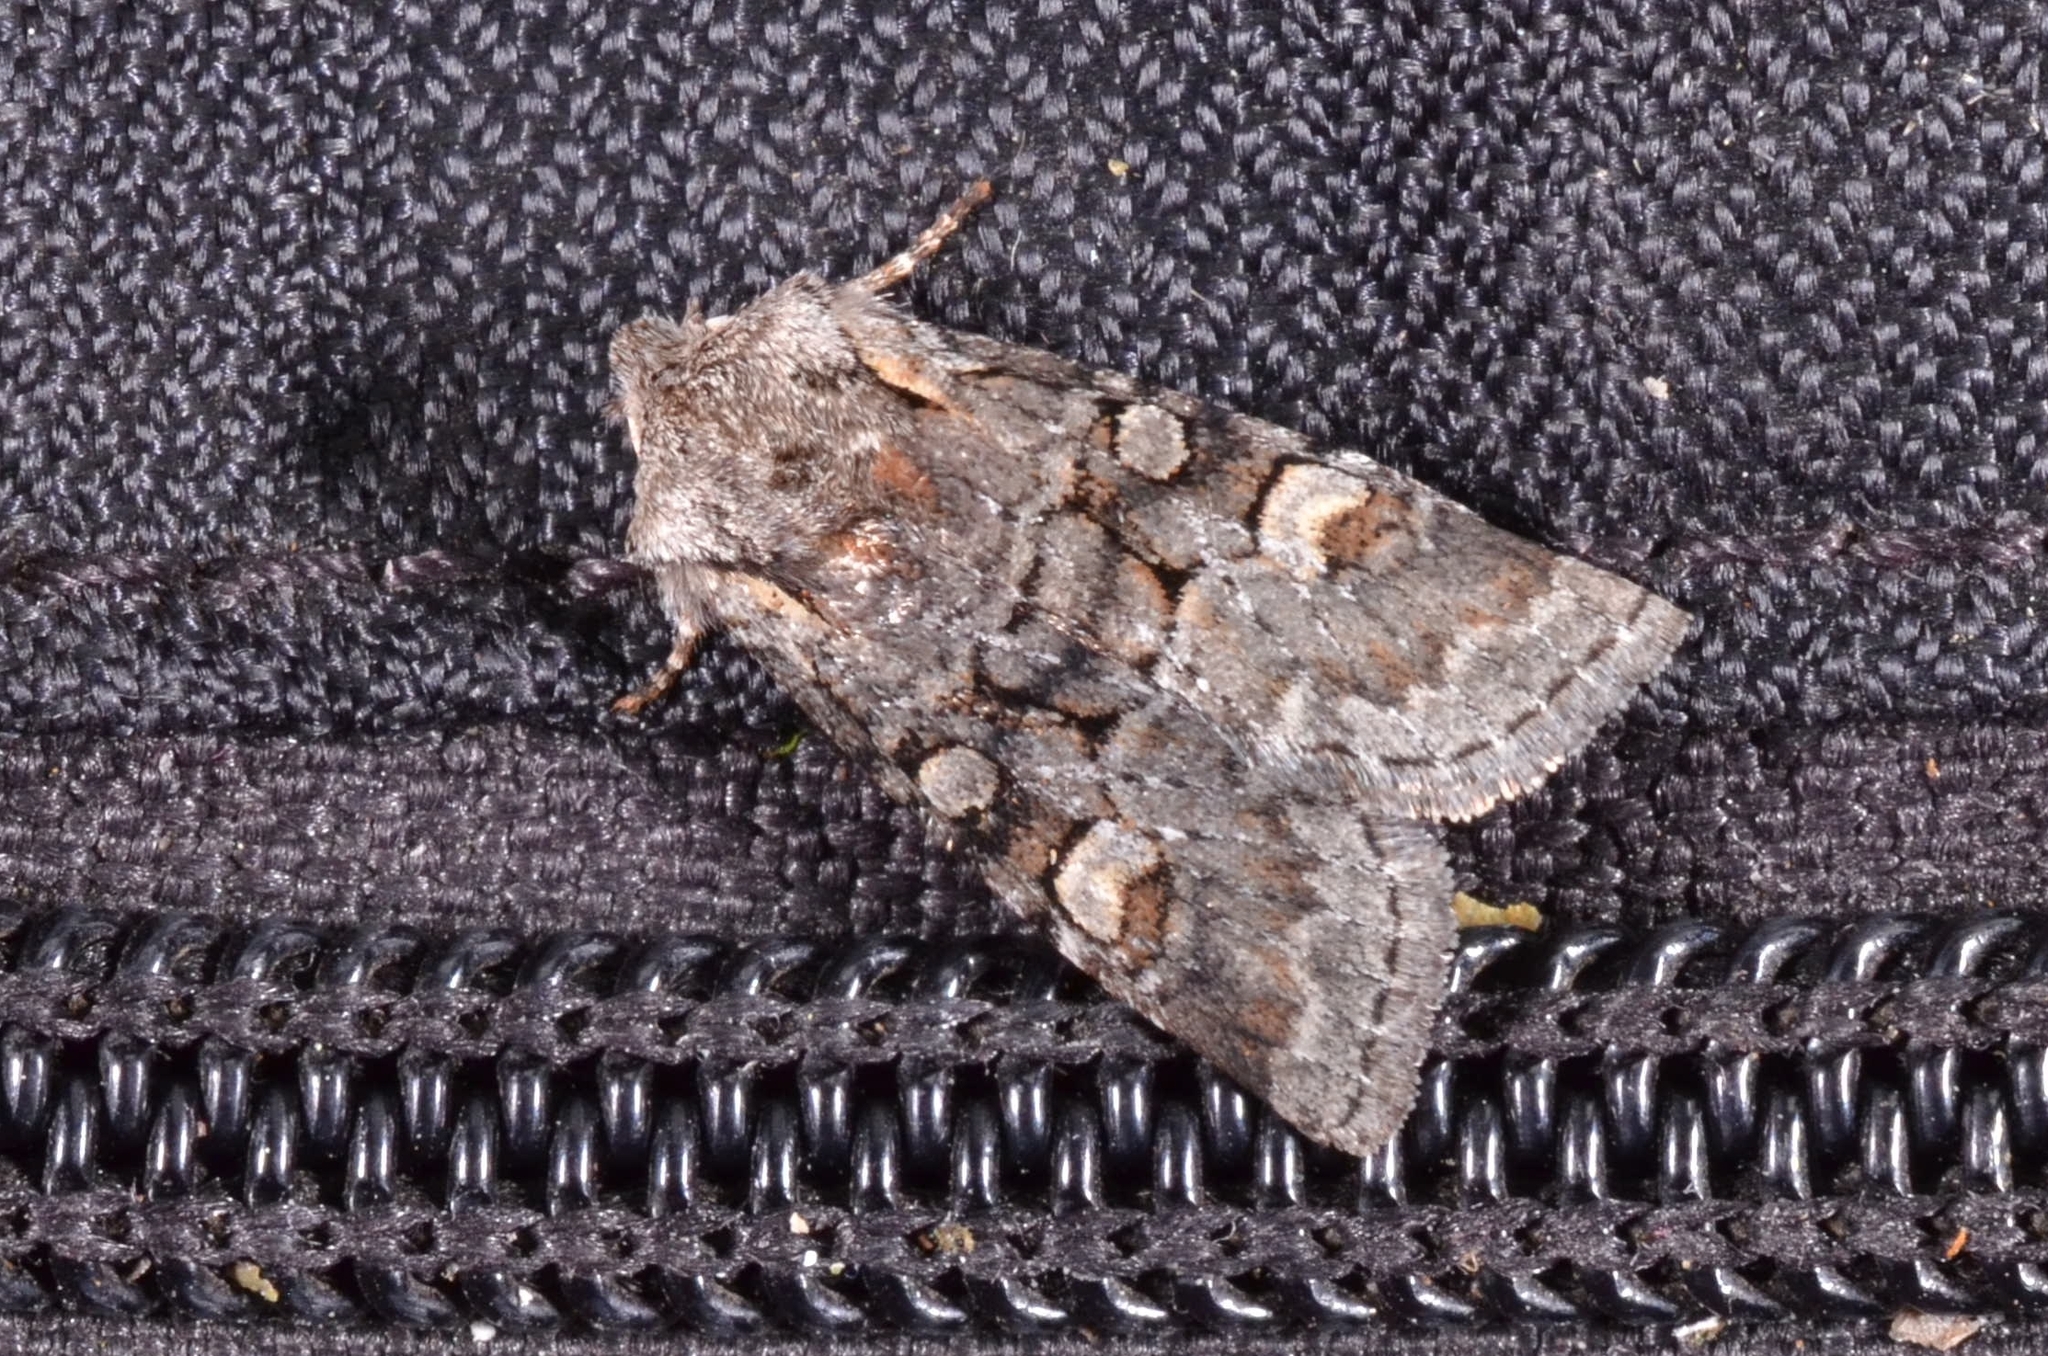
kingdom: Animalia
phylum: Arthropoda
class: Insecta
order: Lepidoptera
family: Noctuidae
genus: Brachylomia
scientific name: Brachylomia viminalis
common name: Minor shoulder-knot
